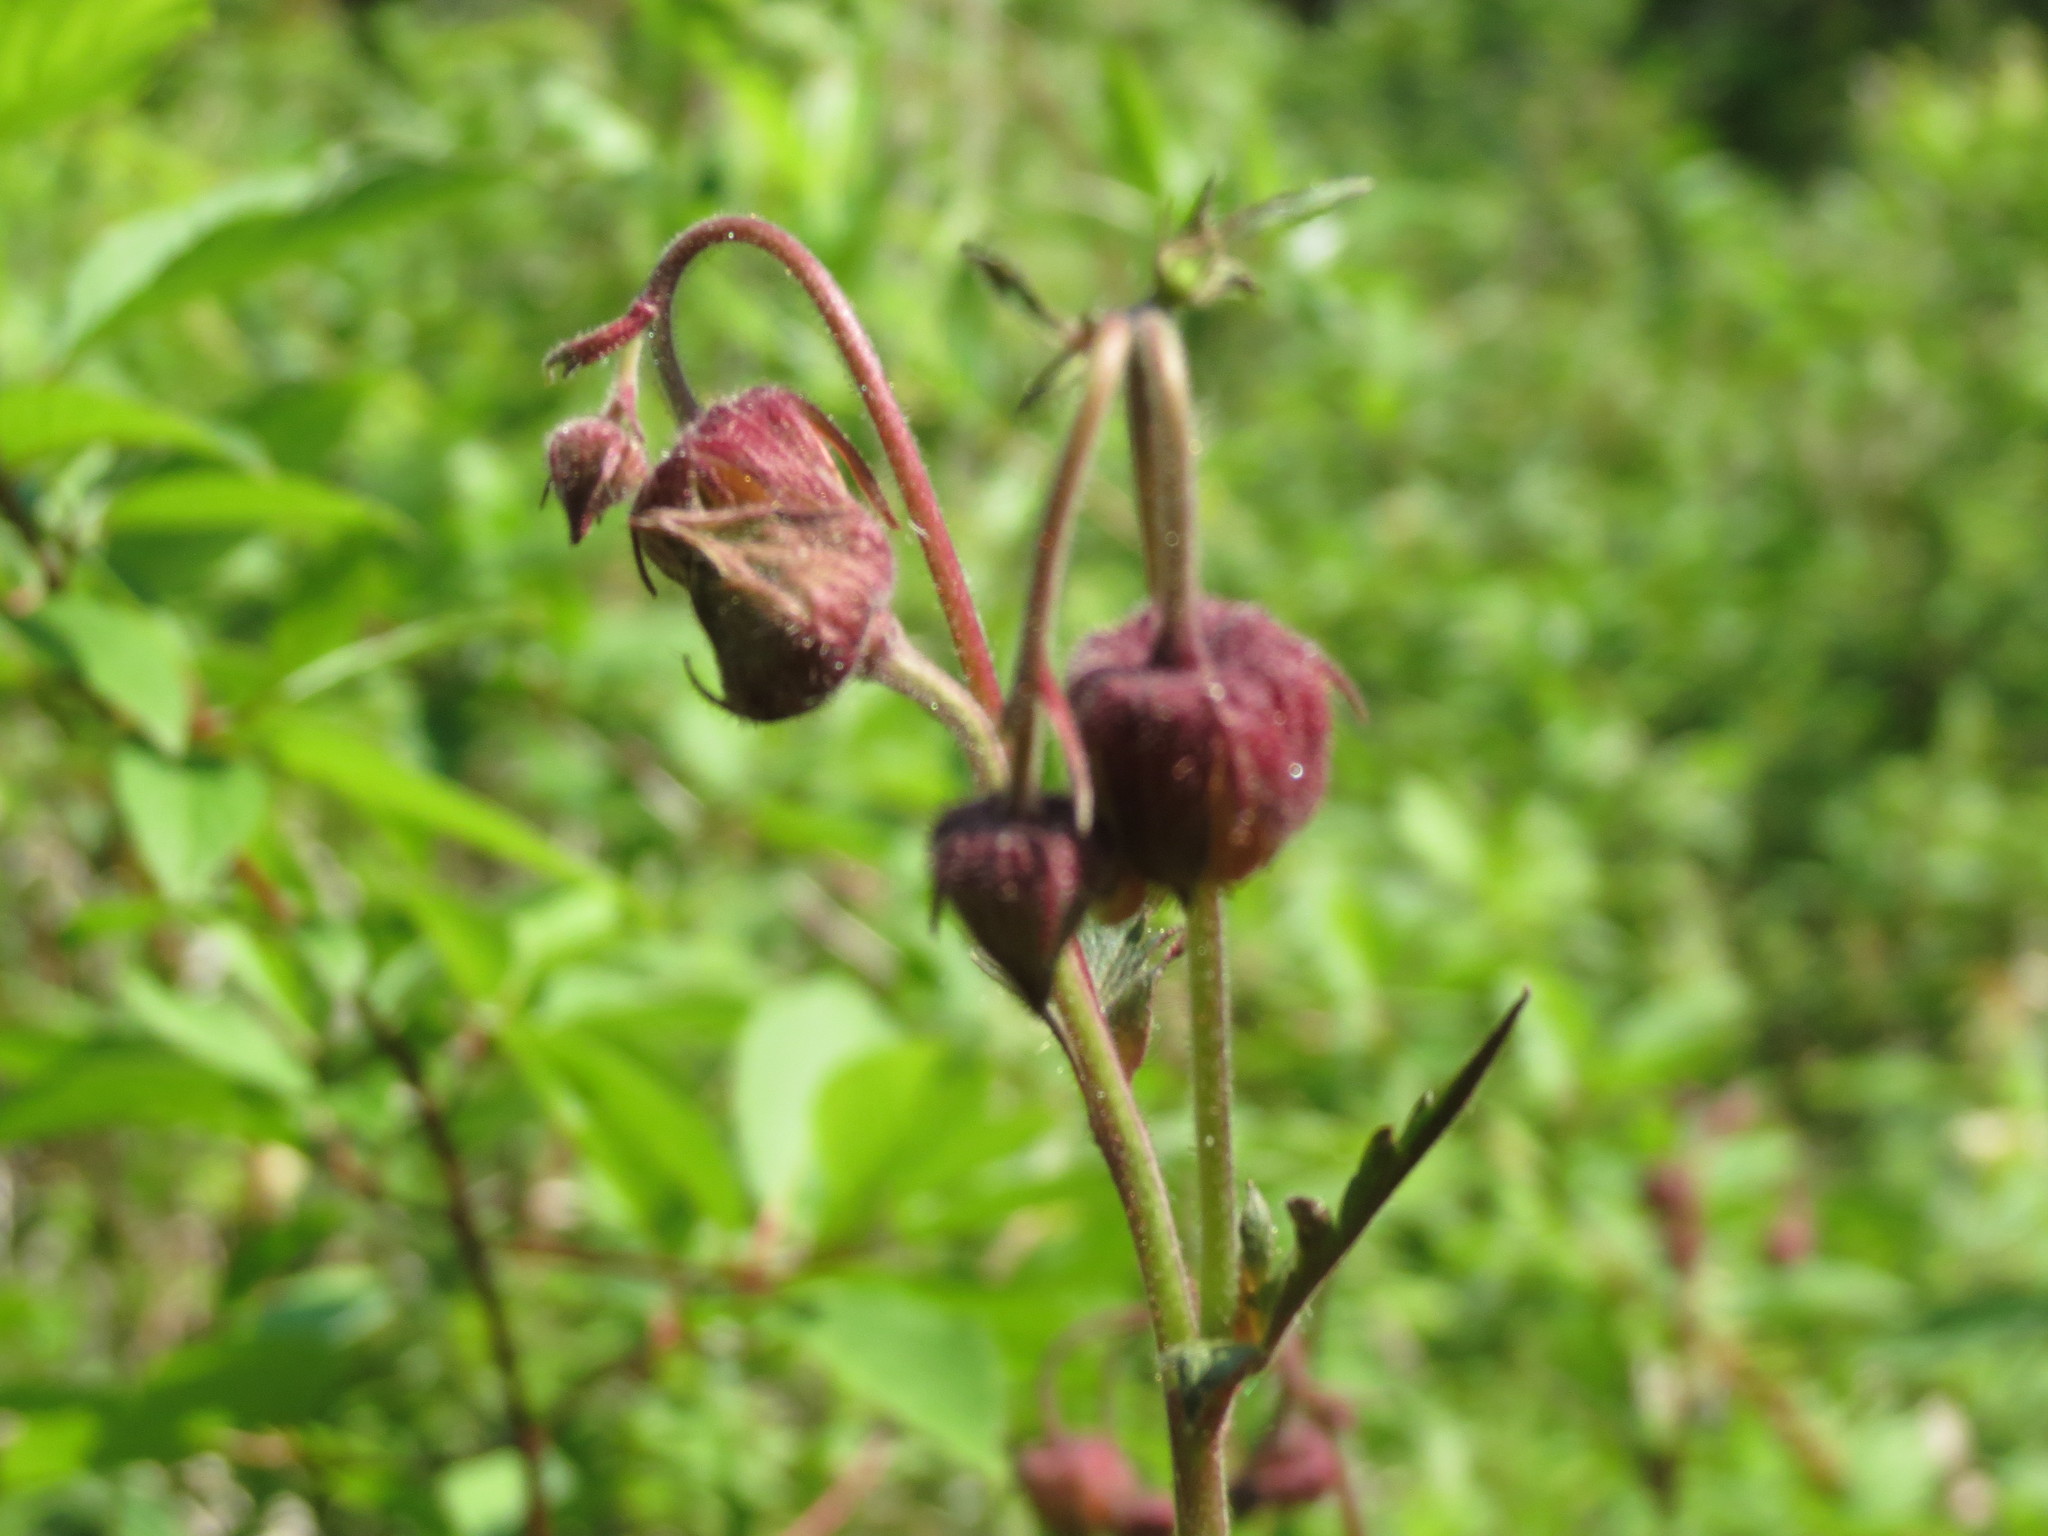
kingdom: Plantae
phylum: Tracheophyta
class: Magnoliopsida
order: Rosales
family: Rosaceae
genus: Geum
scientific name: Geum rivale
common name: Water avens
